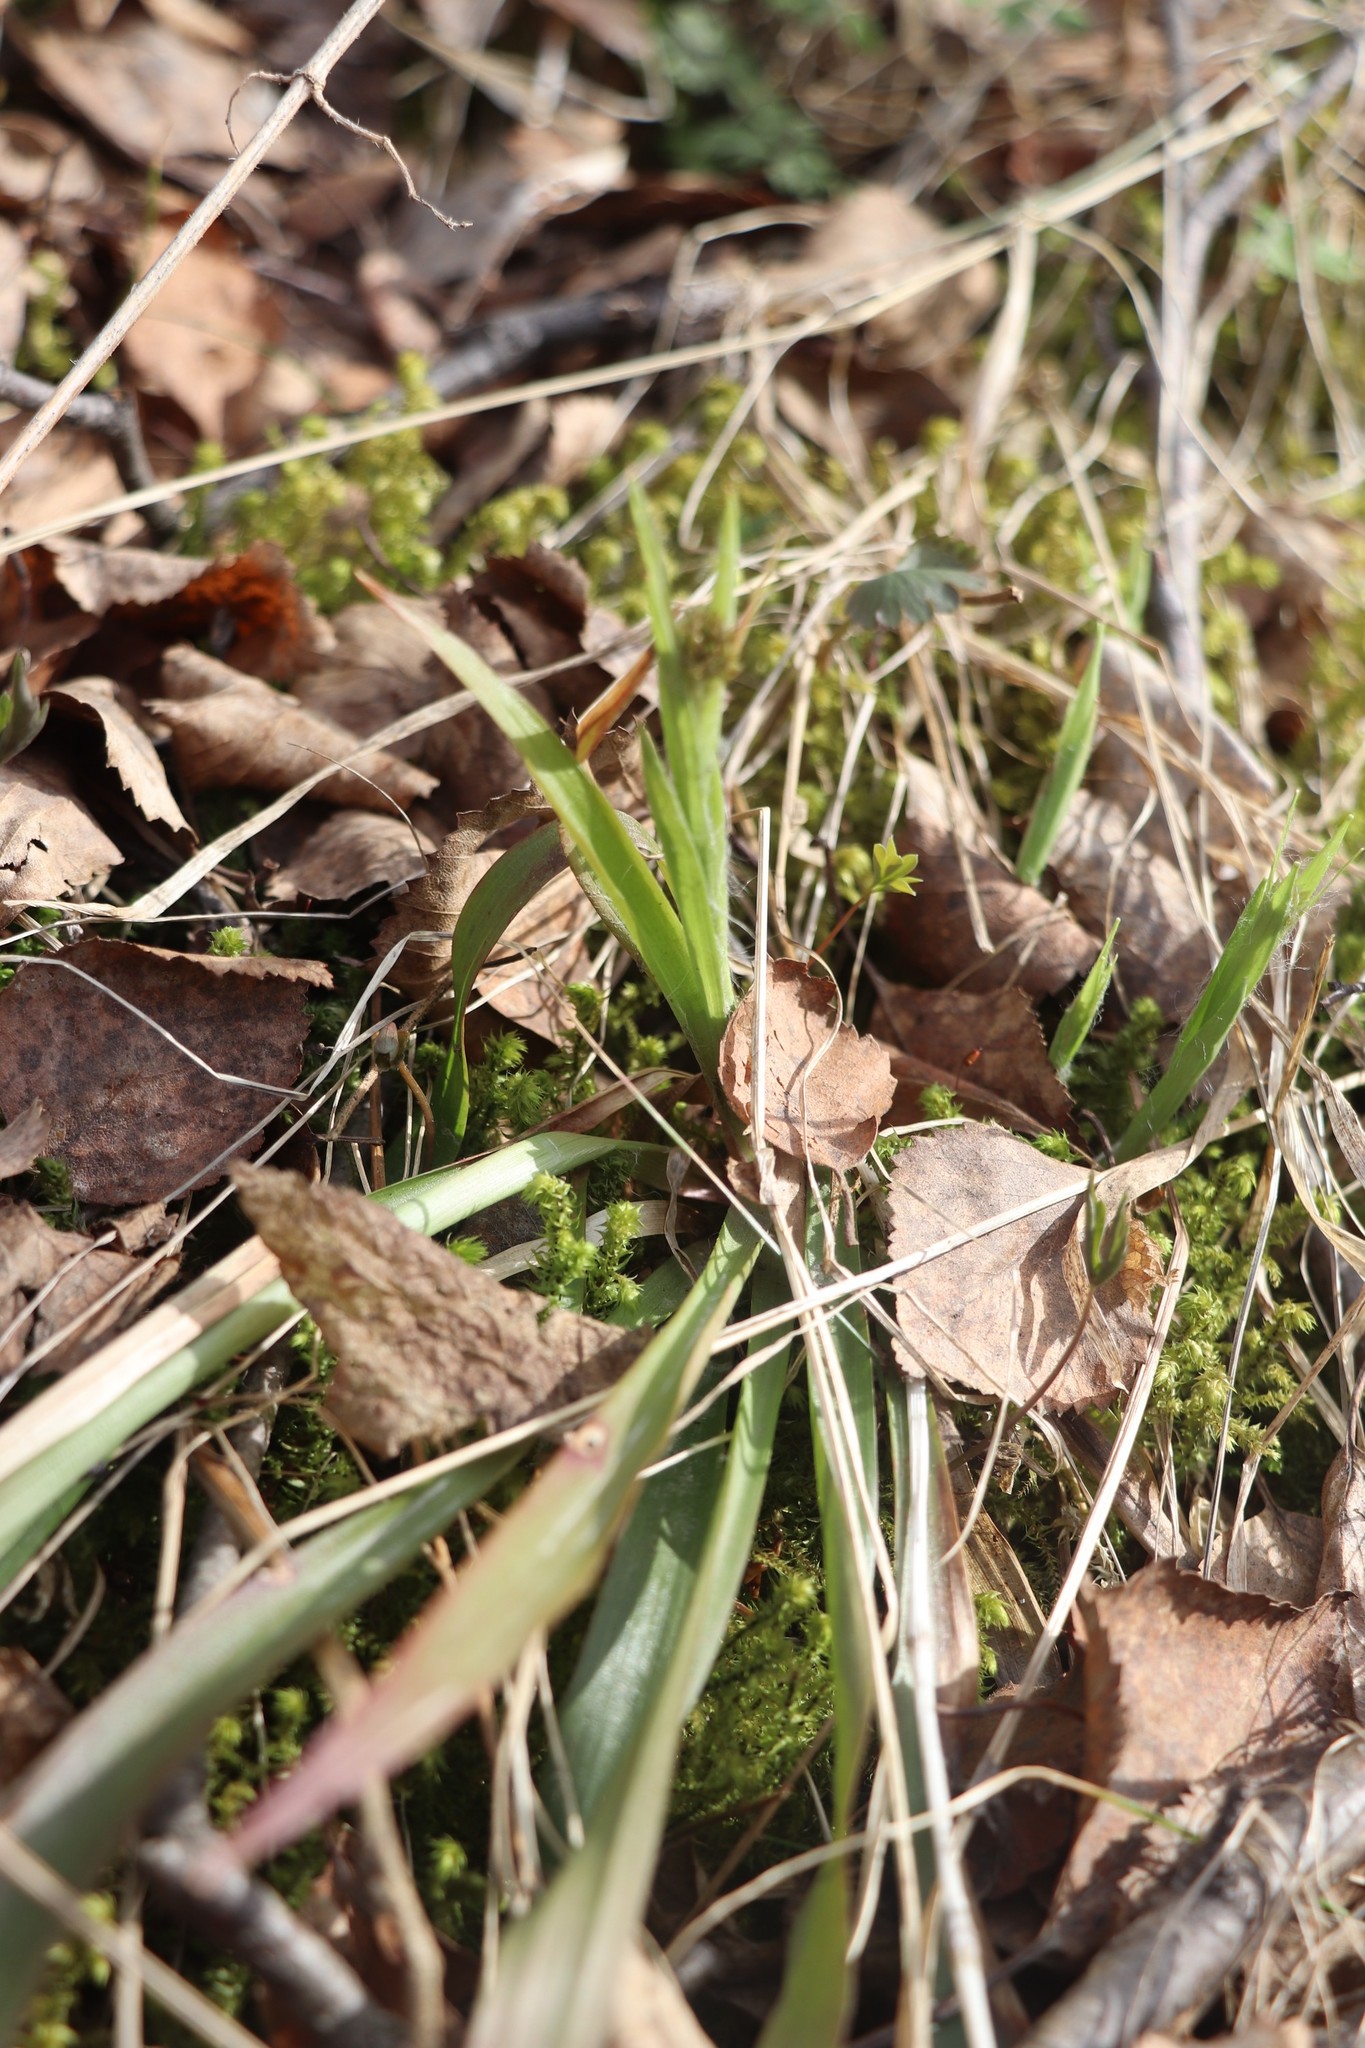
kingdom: Plantae
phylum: Tracheophyta
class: Liliopsida
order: Poales
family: Juncaceae
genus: Luzula
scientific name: Luzula pilosa
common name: Hairy wood-rush
